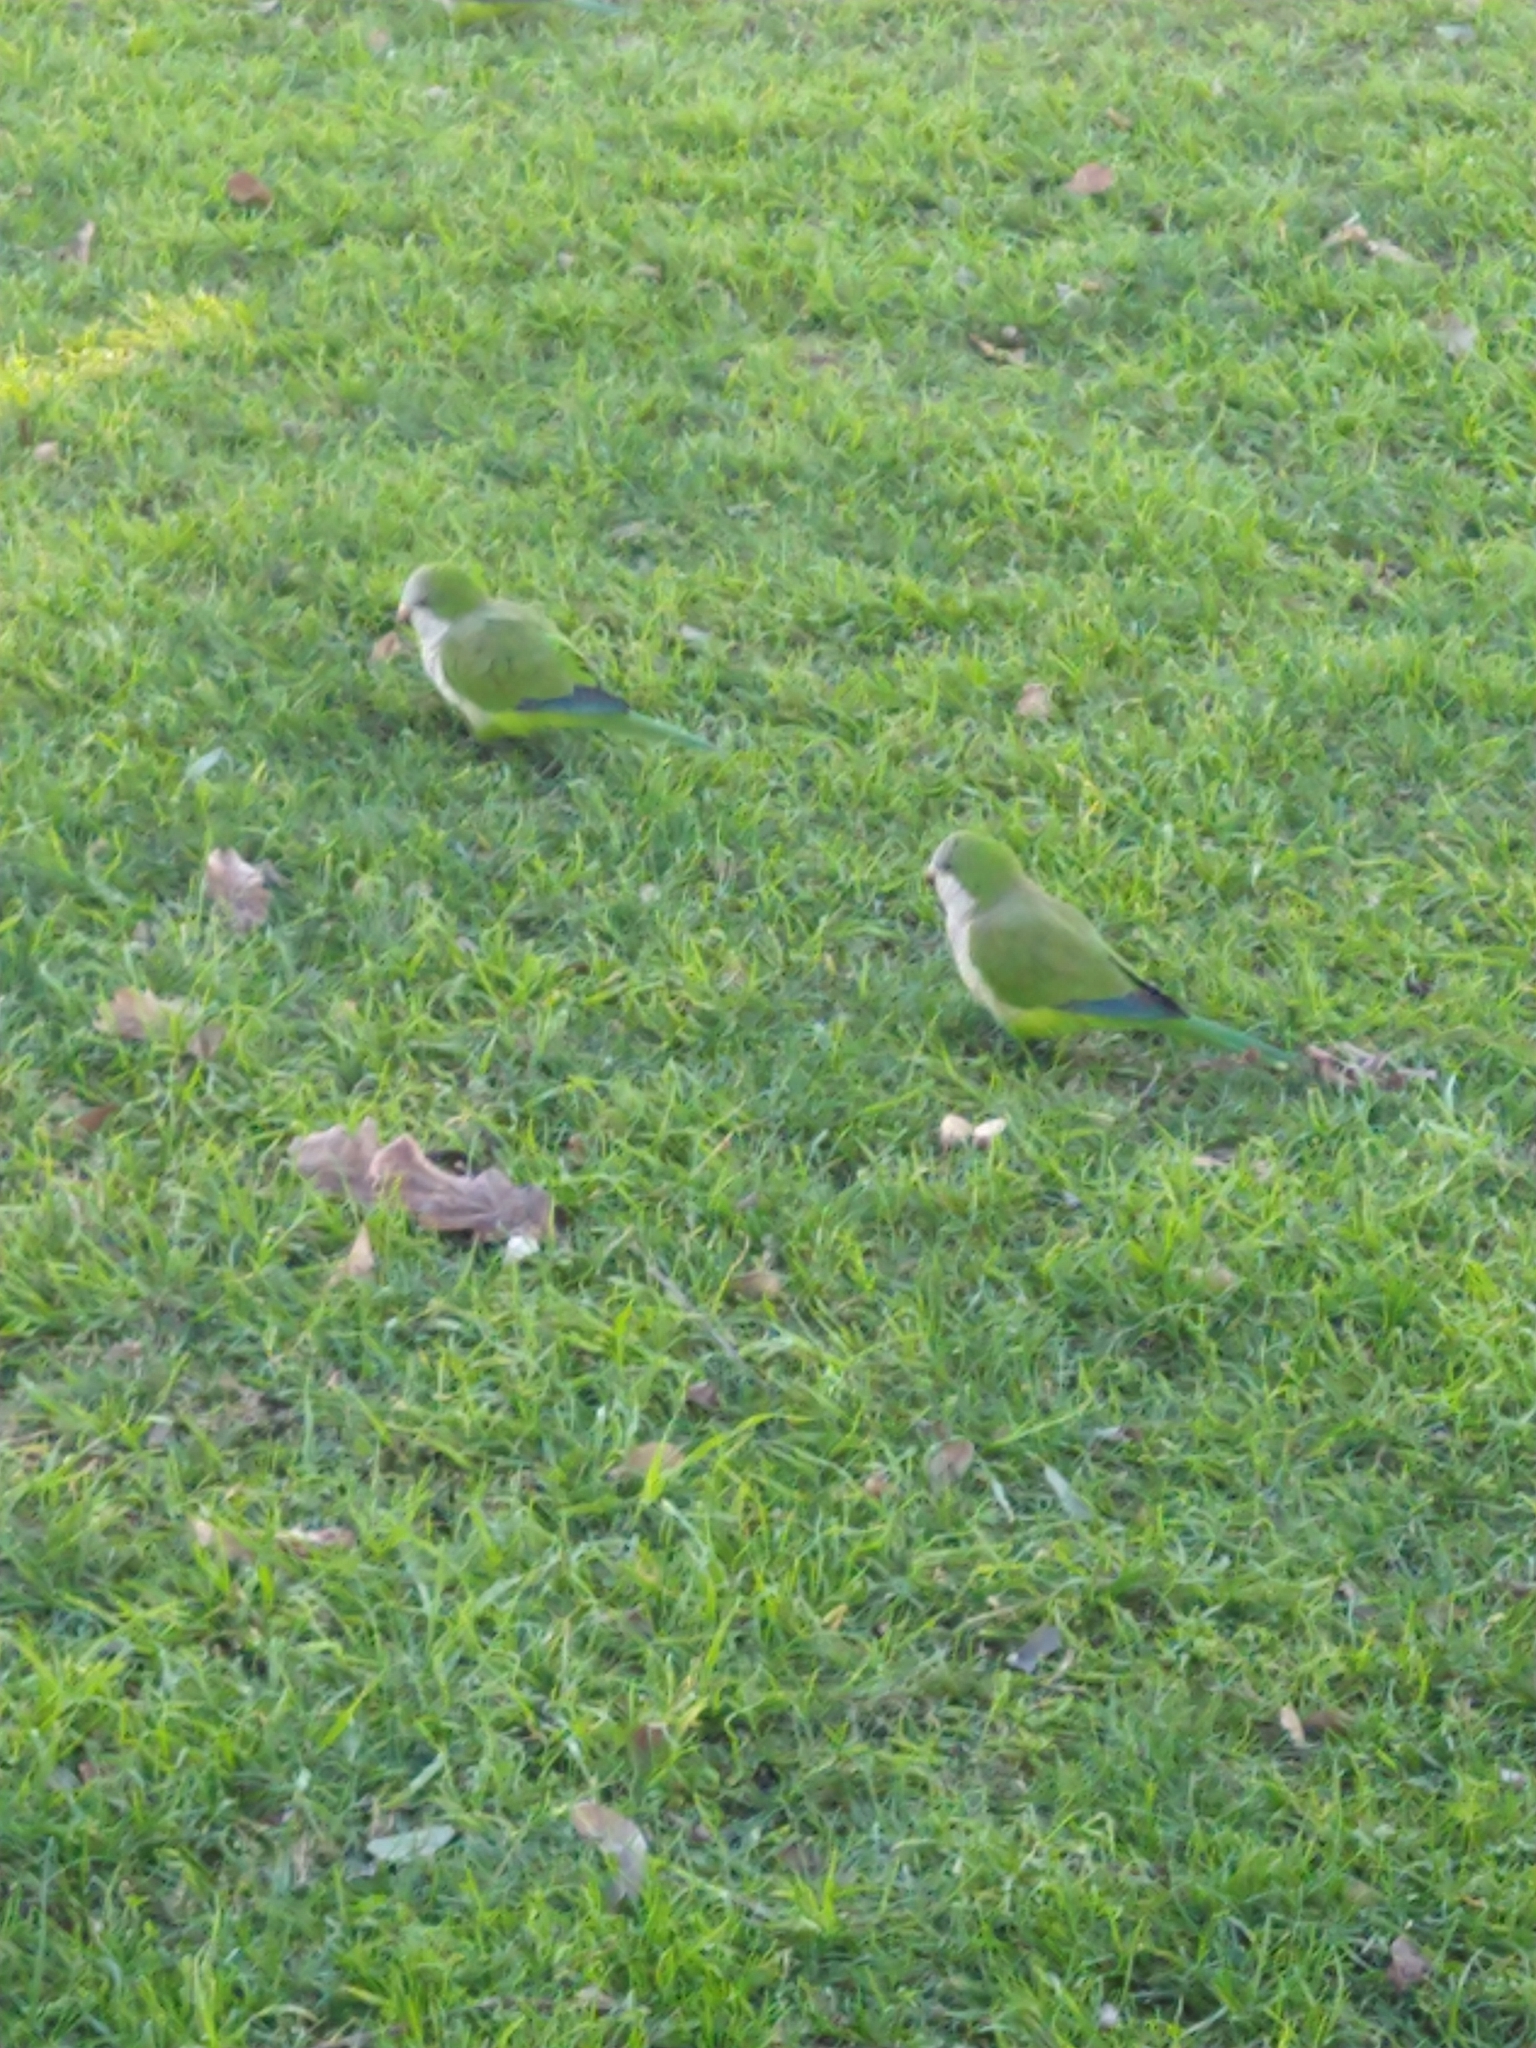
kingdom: Animalia
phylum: Chordata
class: Aves
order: Psittaciformes
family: Psittacidae
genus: Myiopsitta
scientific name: Myiopsitta monachus
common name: Monk parakeet
